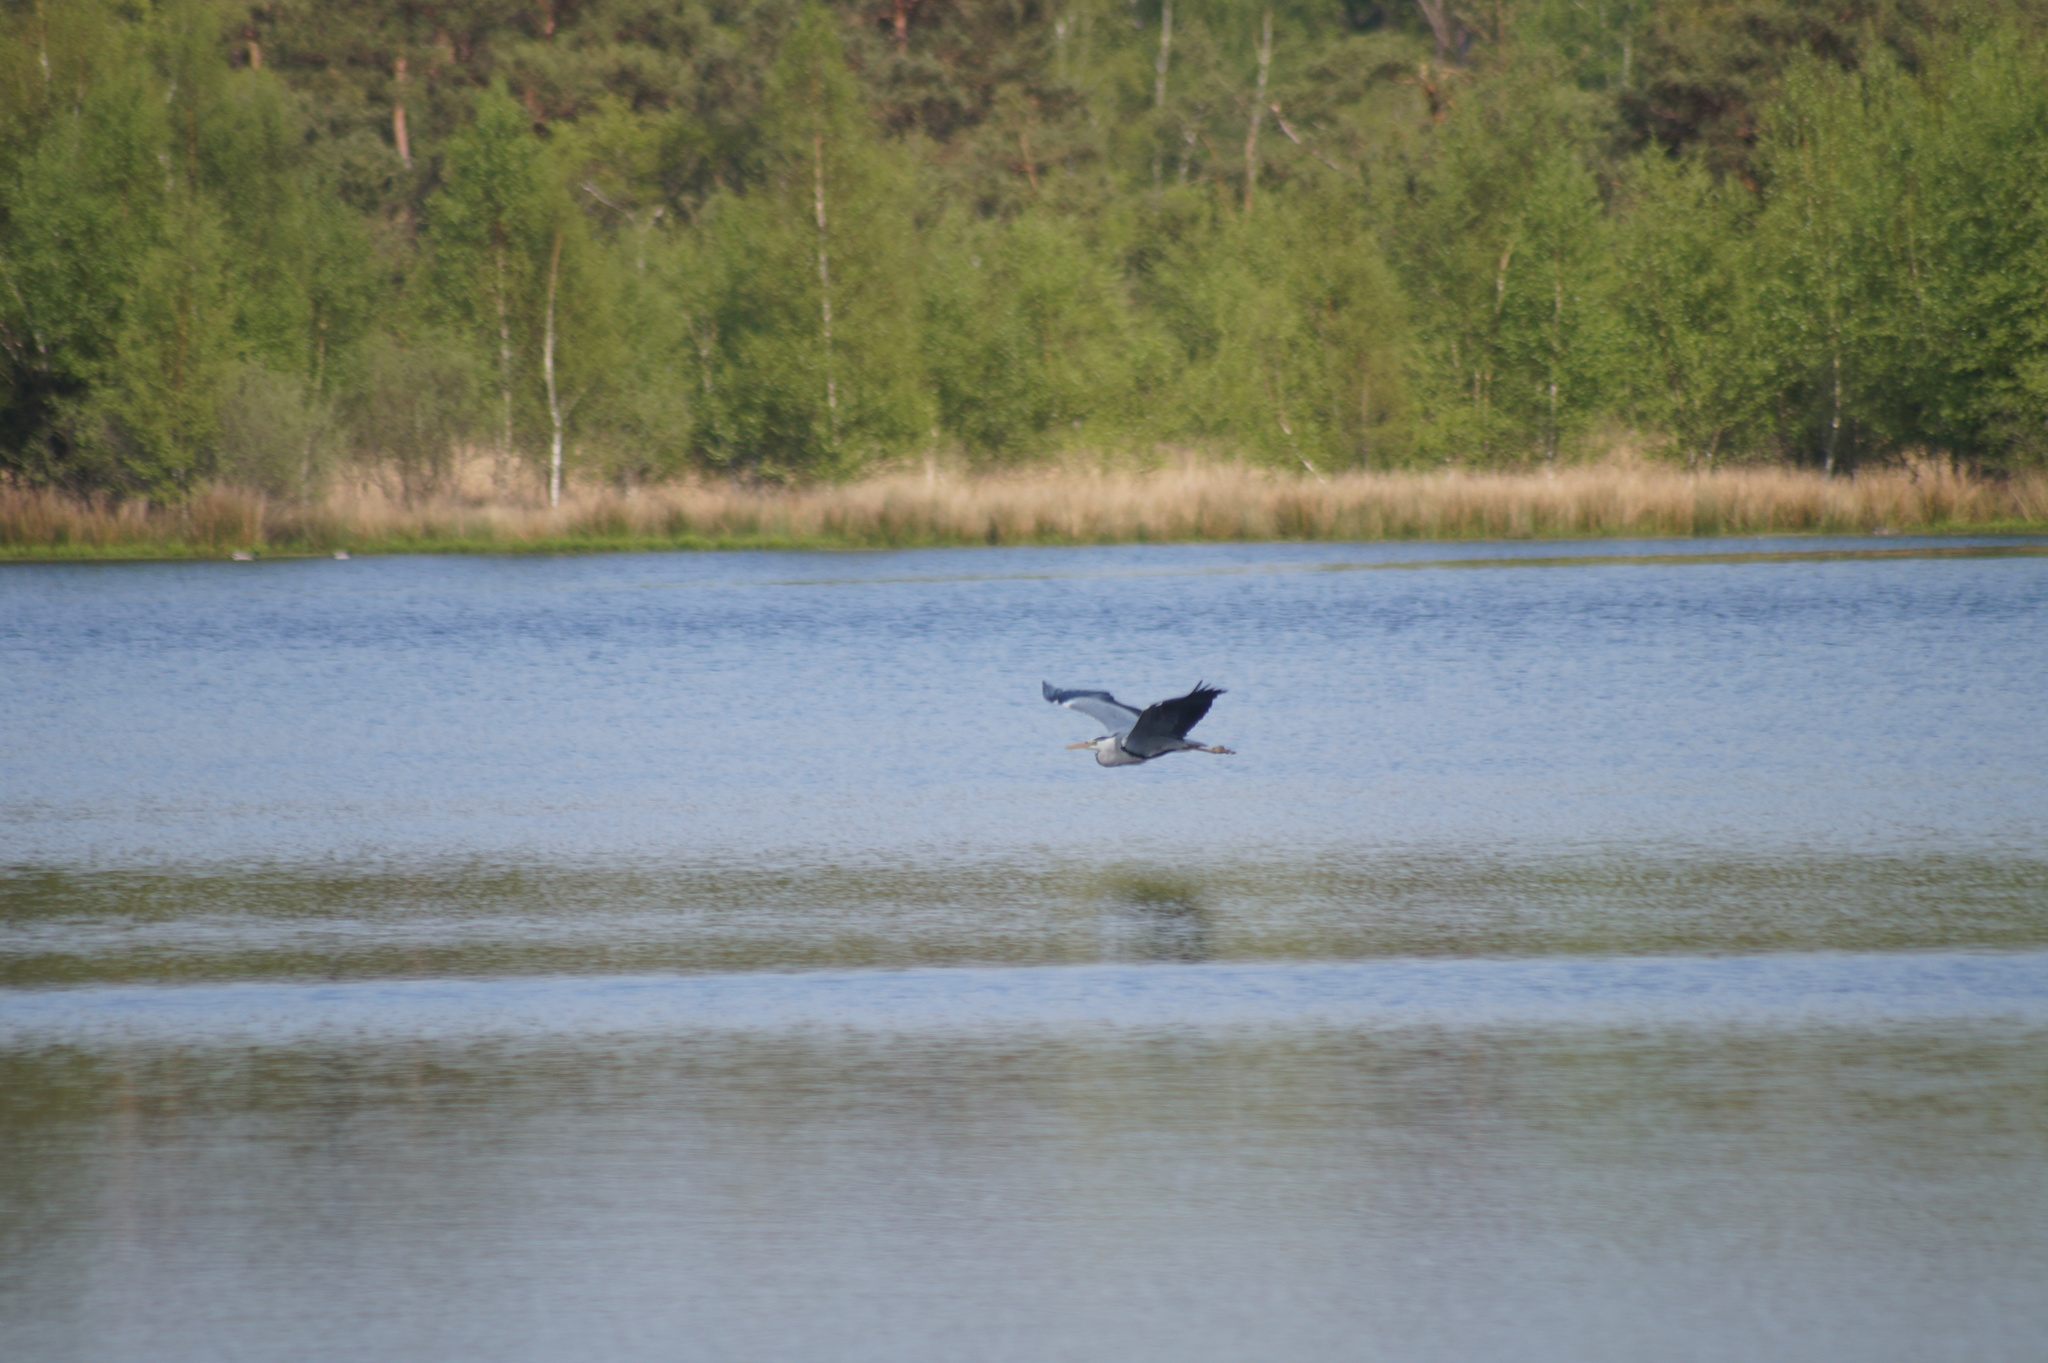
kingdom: Animalia
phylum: Chordata
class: Aves
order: Pelecaniformes
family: Ardeidae
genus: Ardea
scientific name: Ardea cinerea
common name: Grey heron
